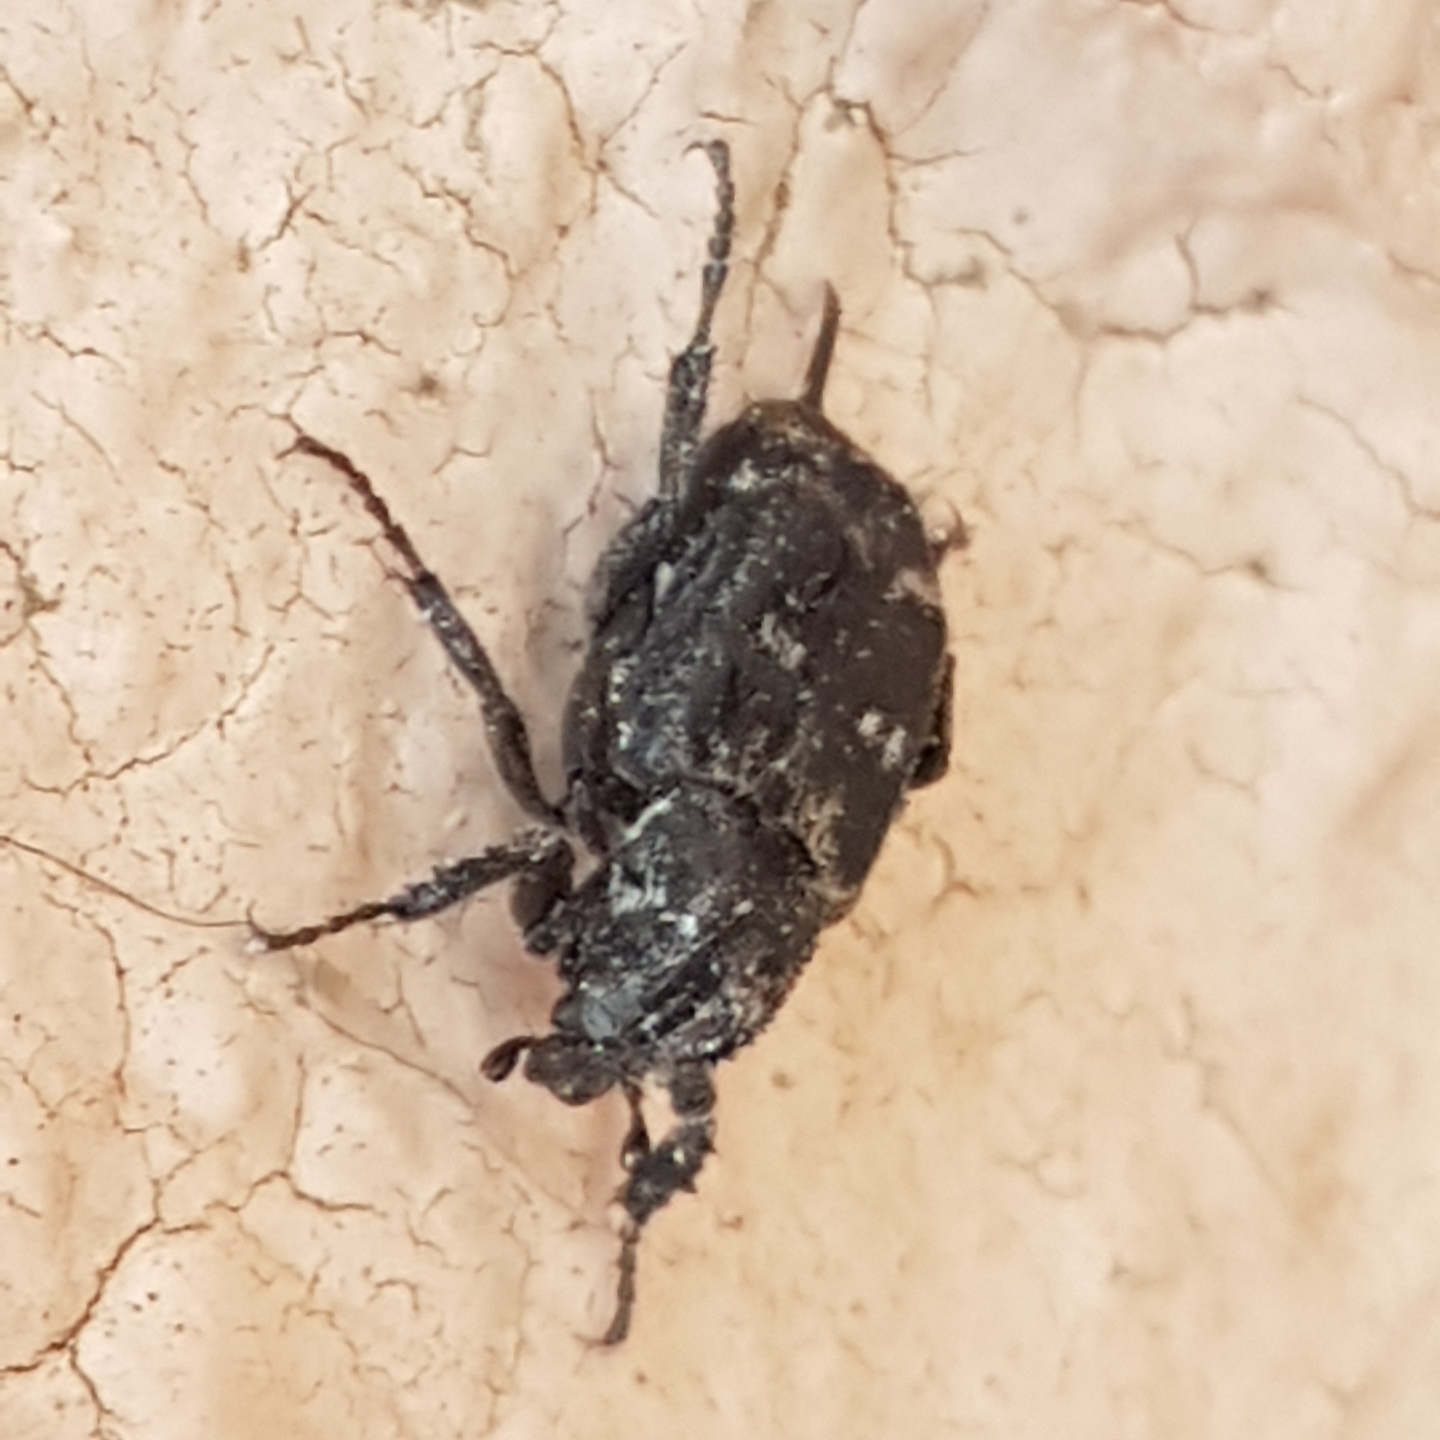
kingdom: Animalia
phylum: Arthropoda
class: Insecta
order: Coleoptera
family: Scarabaeidae
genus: Valgus
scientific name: Valgus hemipterus
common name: Bug flower chafer
